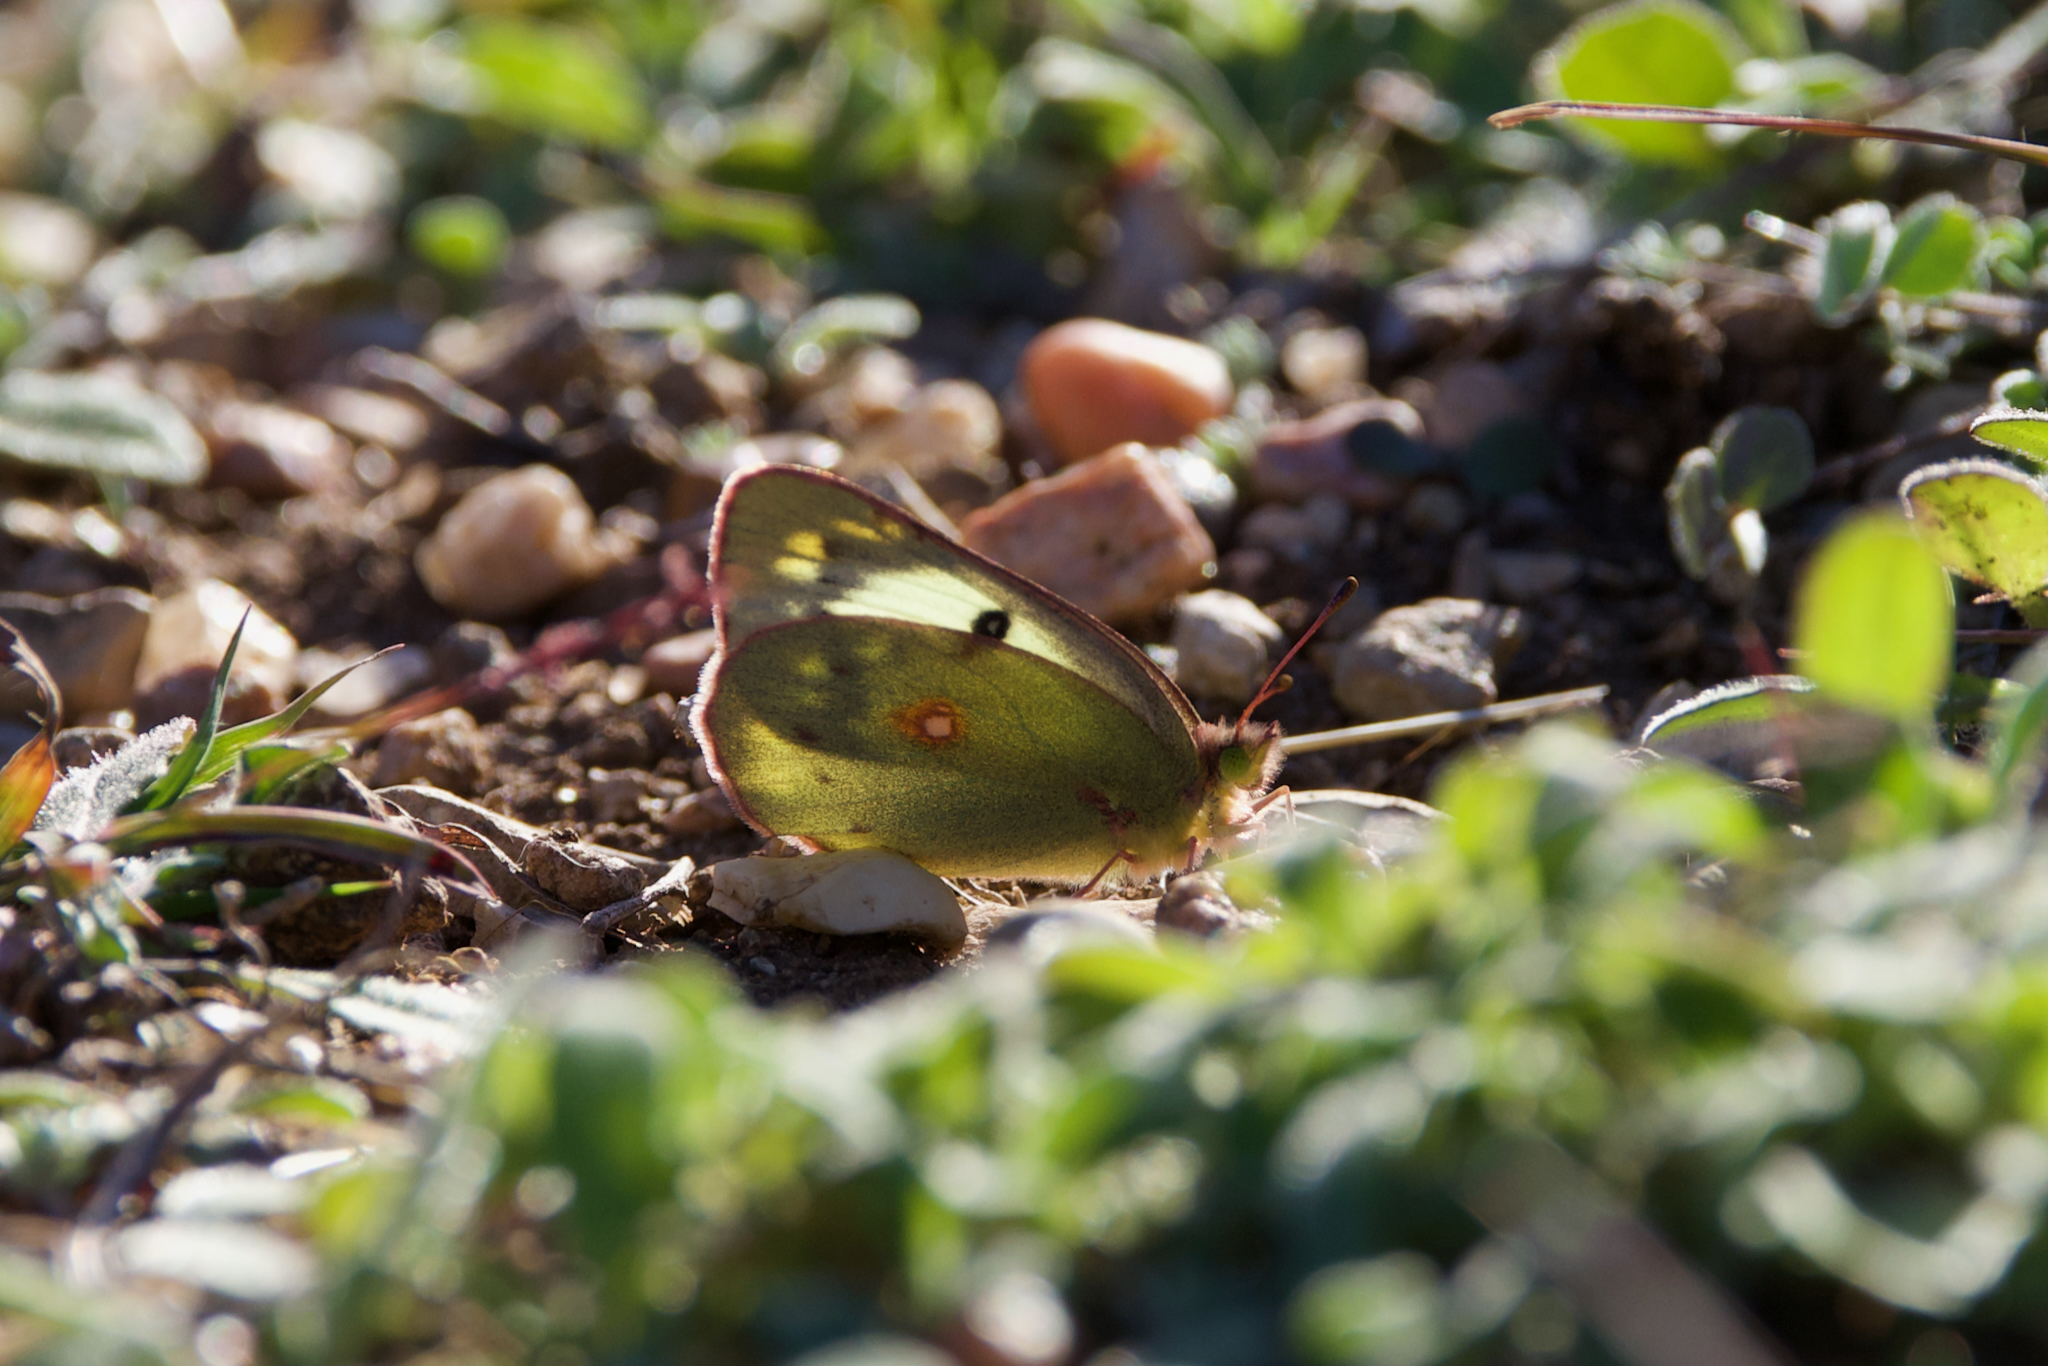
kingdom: Animalia
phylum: Arthropoda
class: Insecta
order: Lepidoptera
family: Pieridae
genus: Colias
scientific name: Colias eurytheme
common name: Alfalfa butterfly
